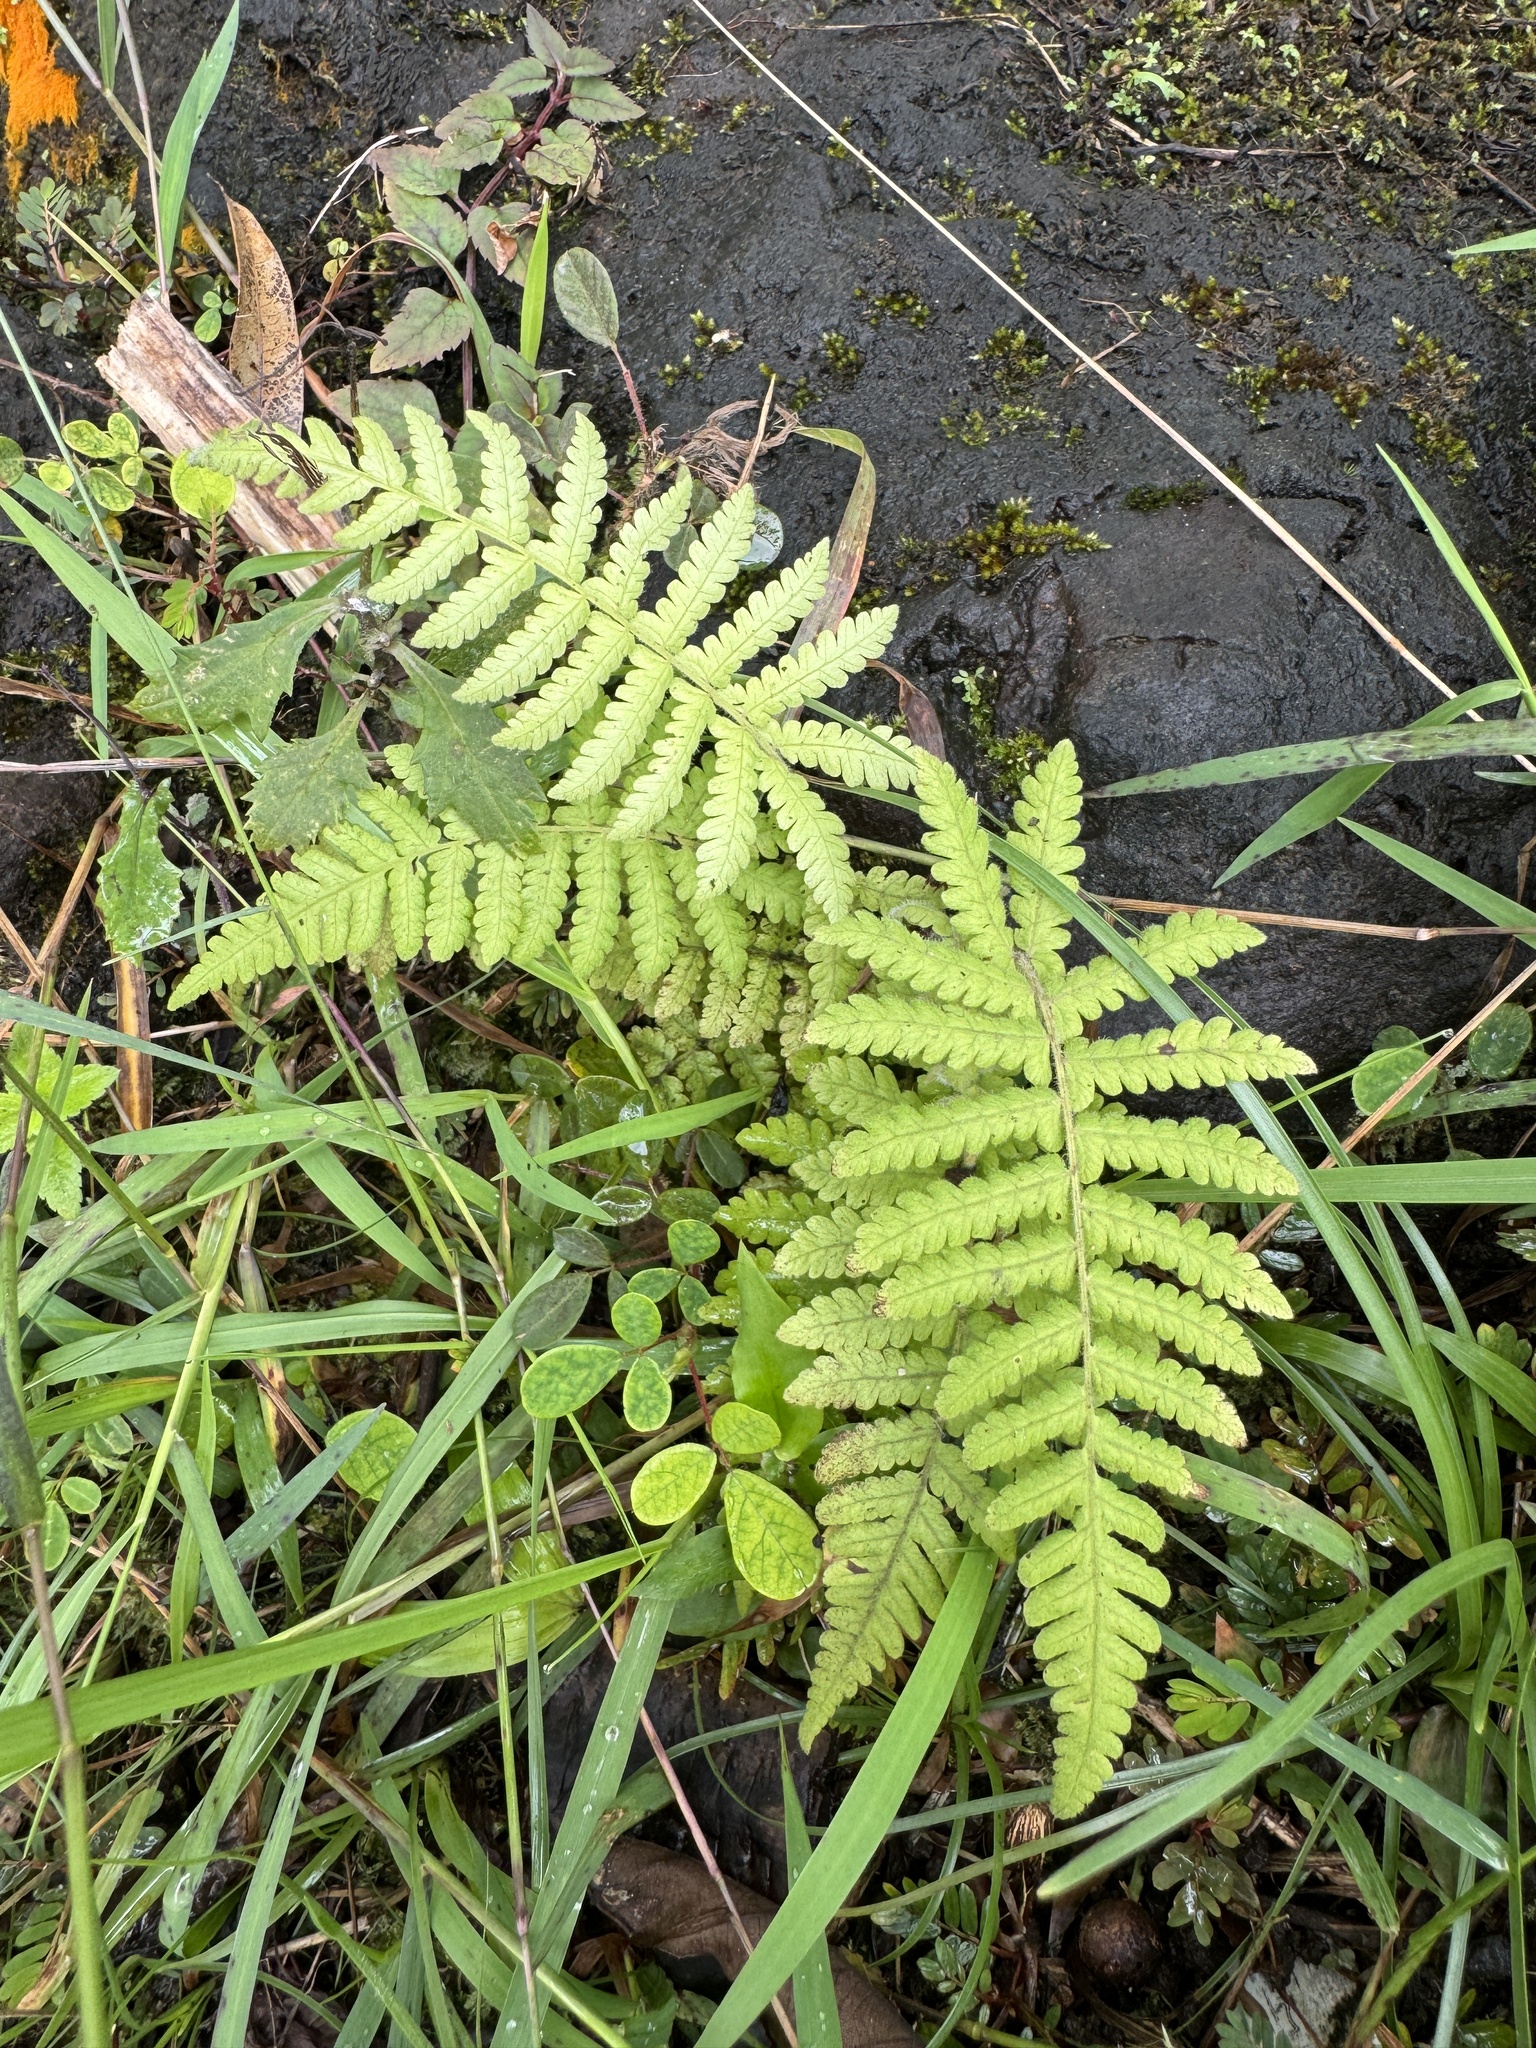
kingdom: Plantae
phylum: Tracheophyta
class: Polypodiopsida
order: Polypodiales
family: Thelypteridaceae
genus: Christella
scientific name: Christella parasitica
